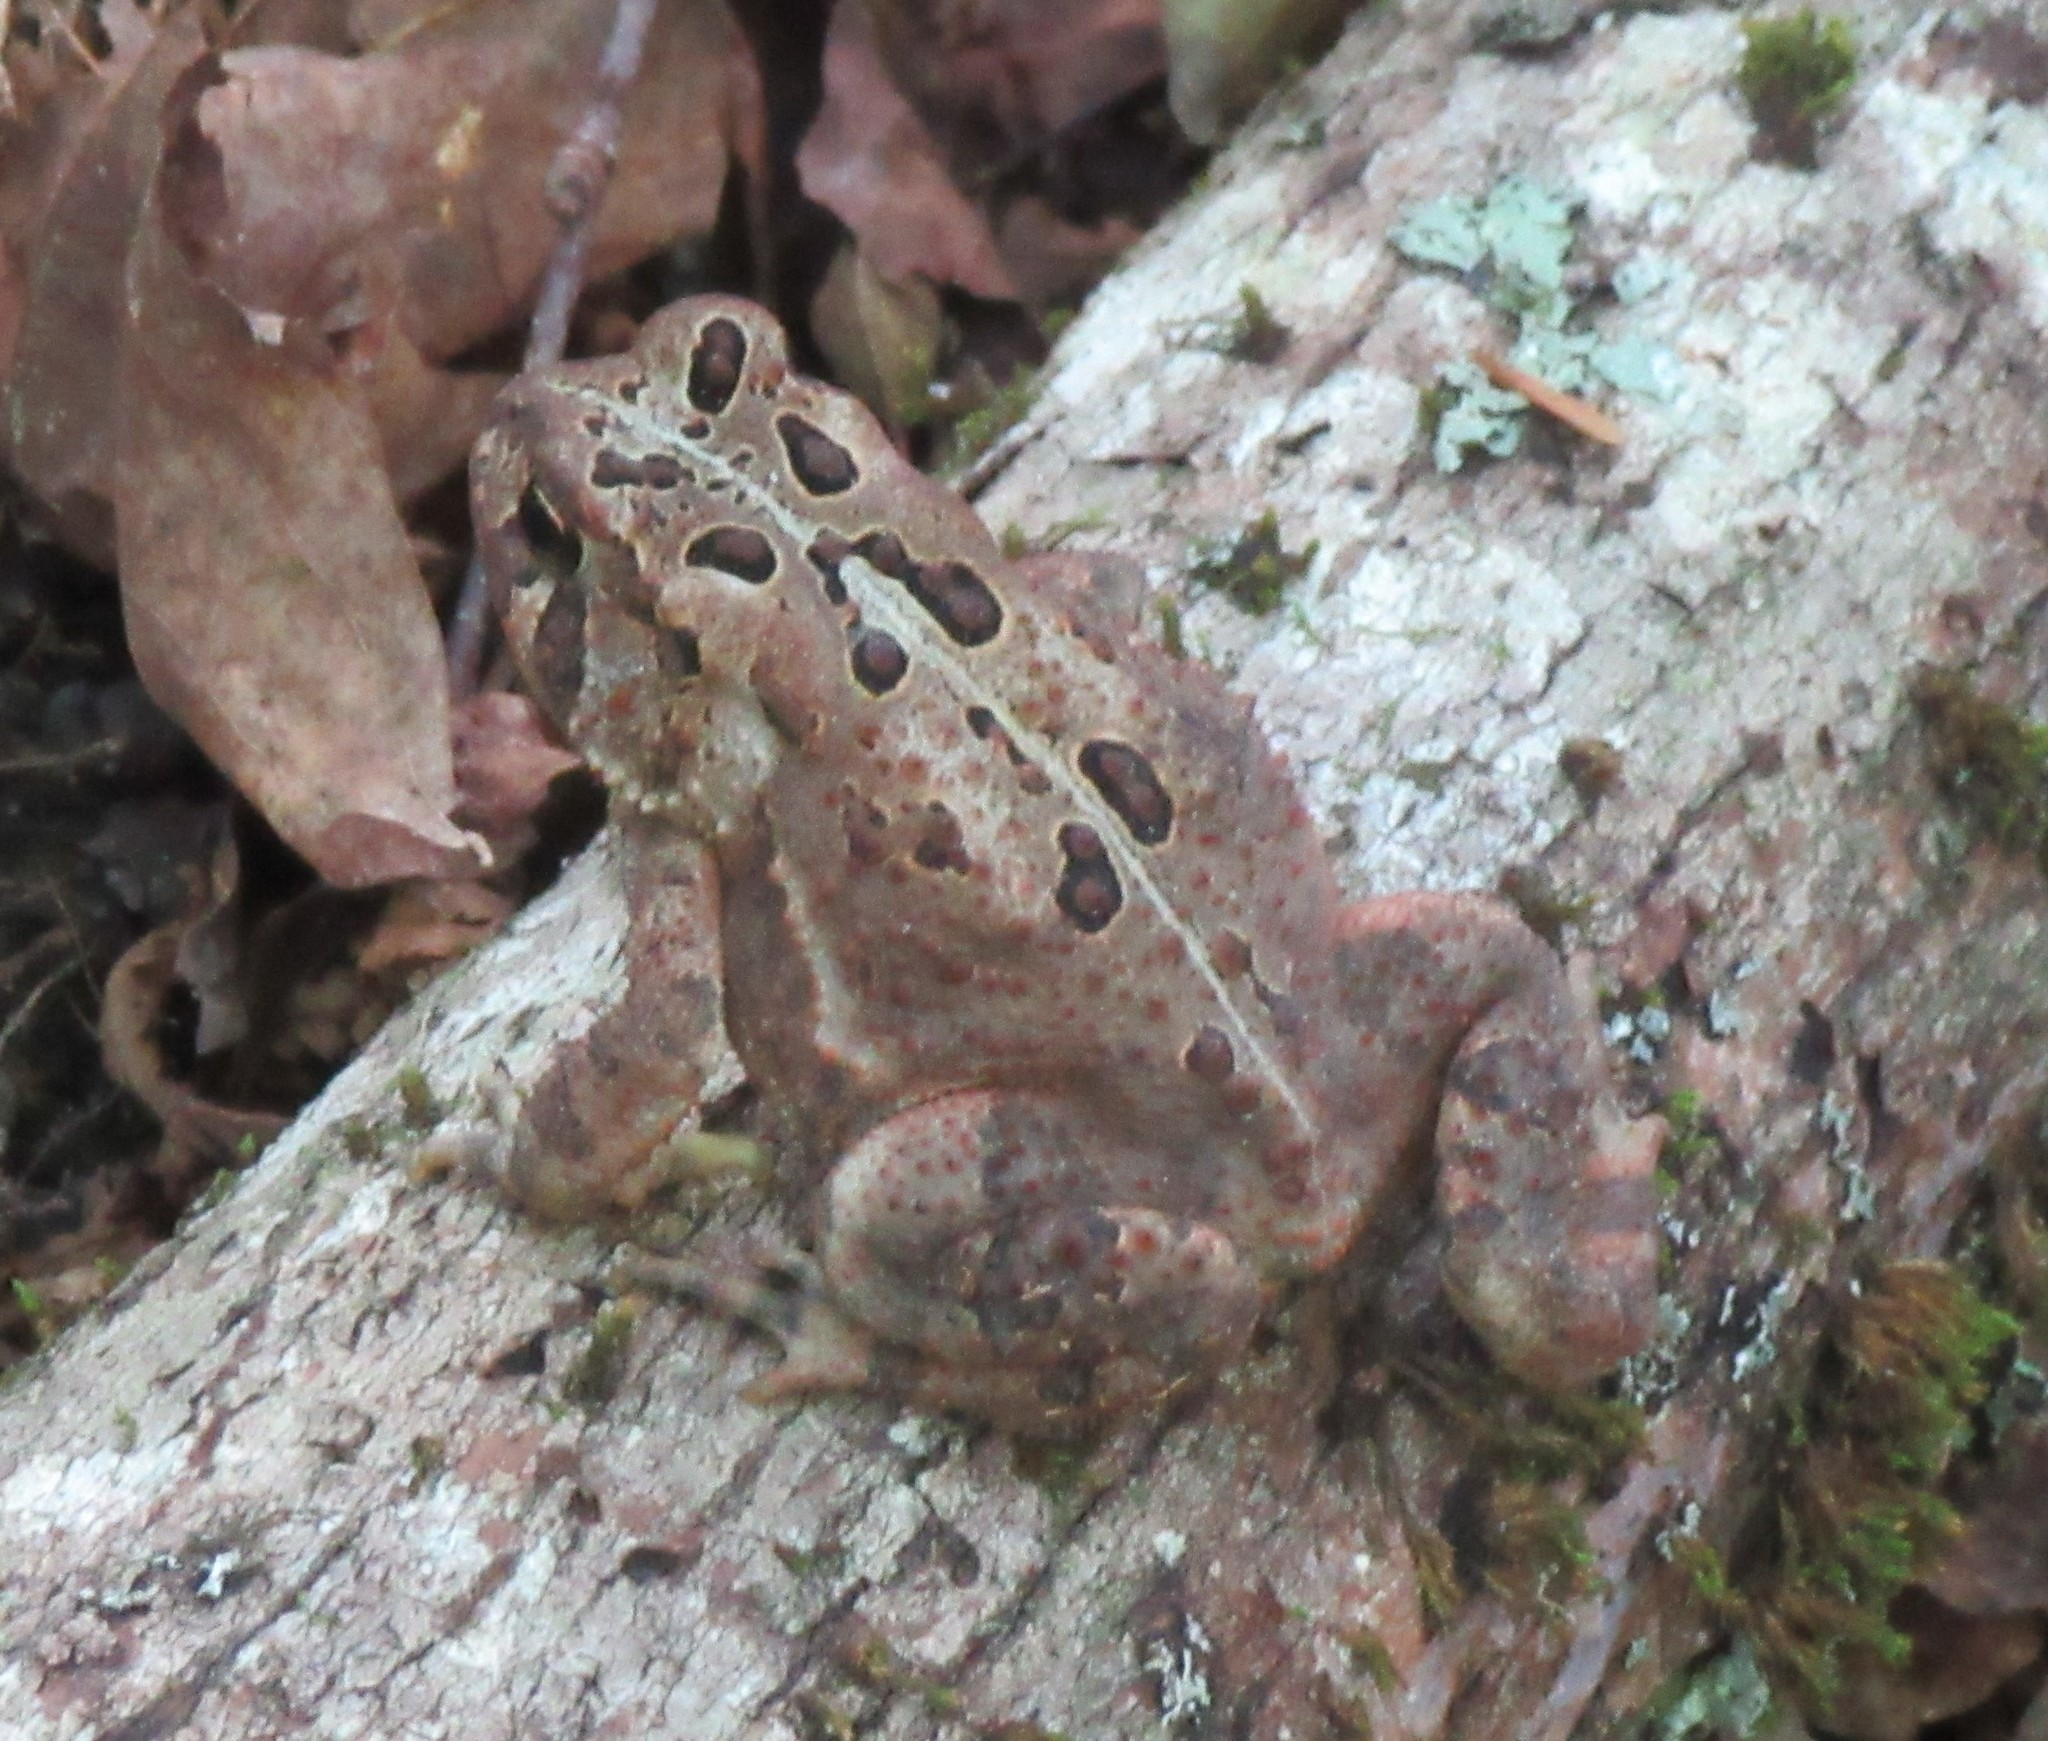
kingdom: Animalia
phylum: Chordata
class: Amphibia
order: Anura
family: Bufonidae
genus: Anaxyrus
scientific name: Anaxyrus americanus
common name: American toad
